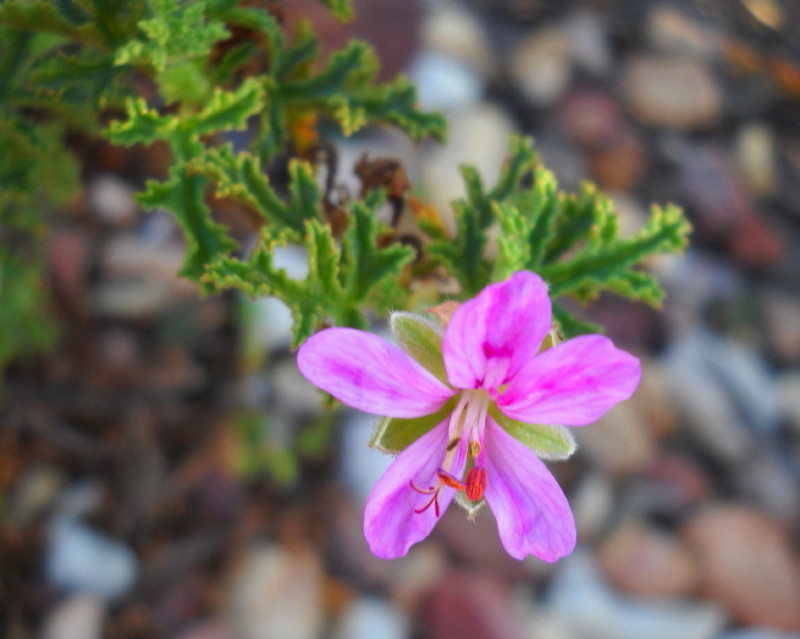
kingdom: Plantae
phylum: Tracheophyta
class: Magnoliopsida
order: Geraniales
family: Geraniaceae
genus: Pelargonium
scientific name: Pelargonium quercifolium
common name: Oakleaf geranium
